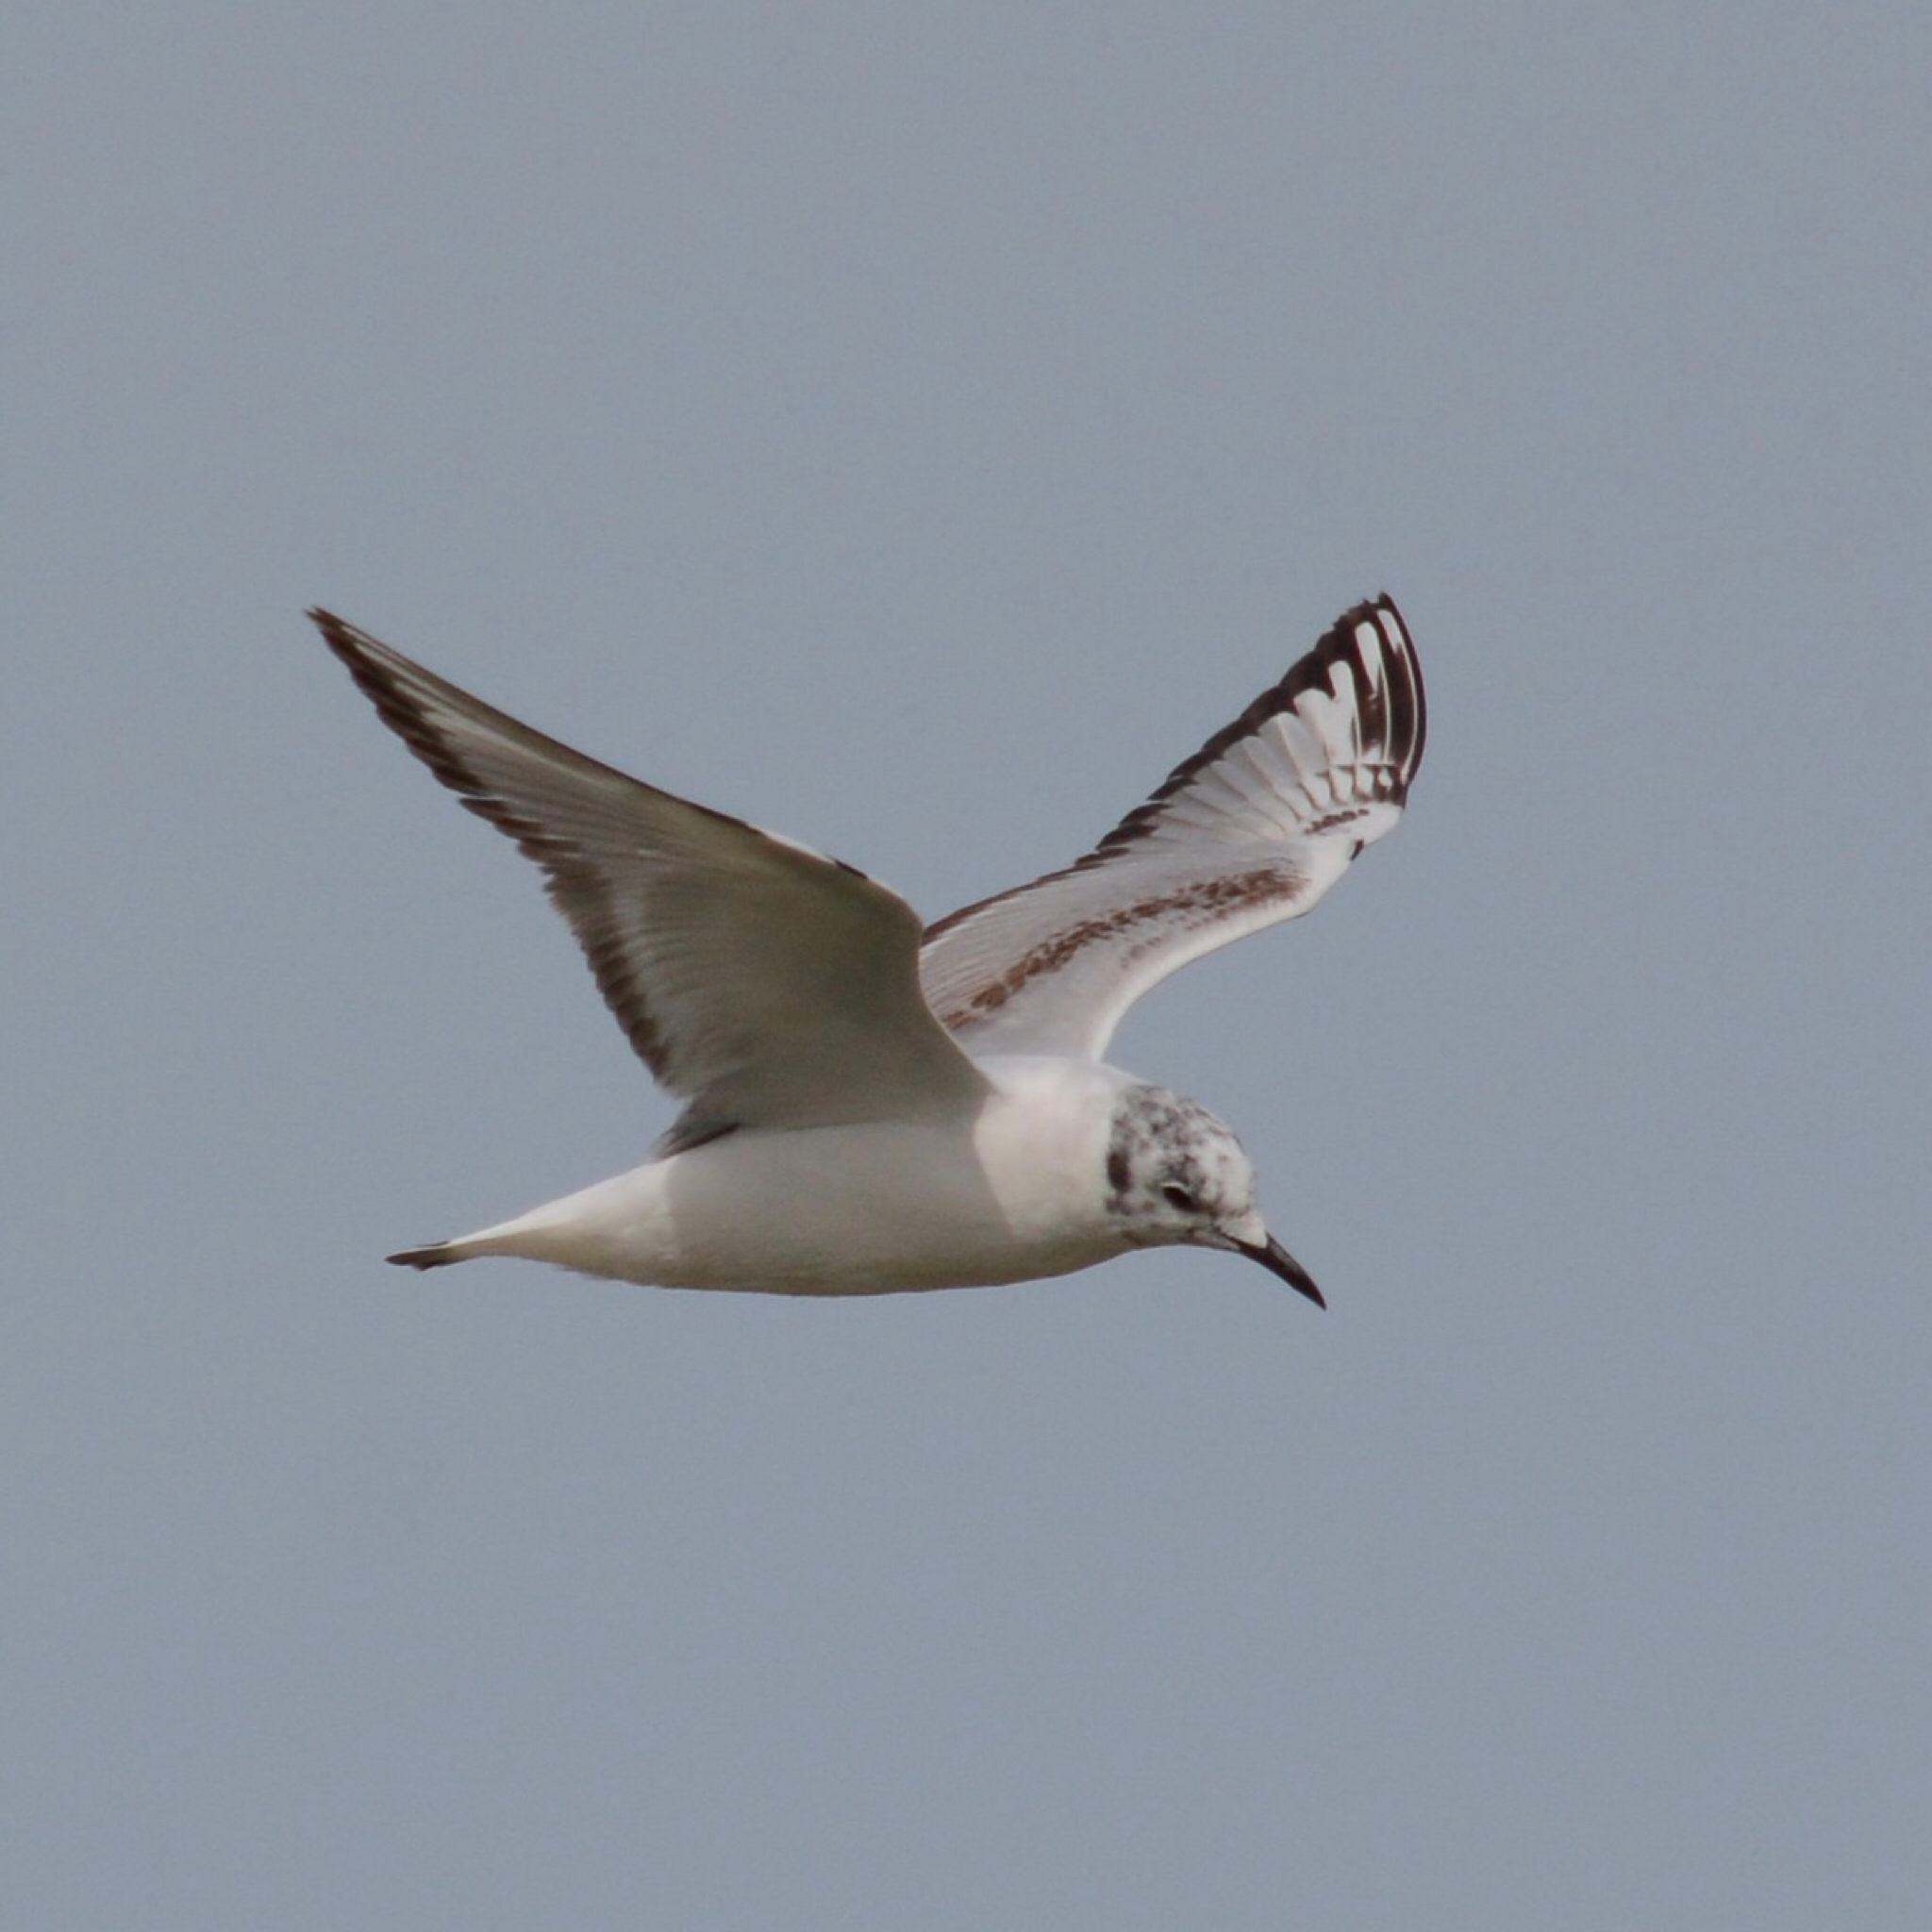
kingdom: Animalia
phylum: Chordata
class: Aves
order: Charadriiformes
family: Laridae
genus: Chroicocephalus
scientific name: Chroicocephalus philadelphia
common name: Bonaparte's gull
